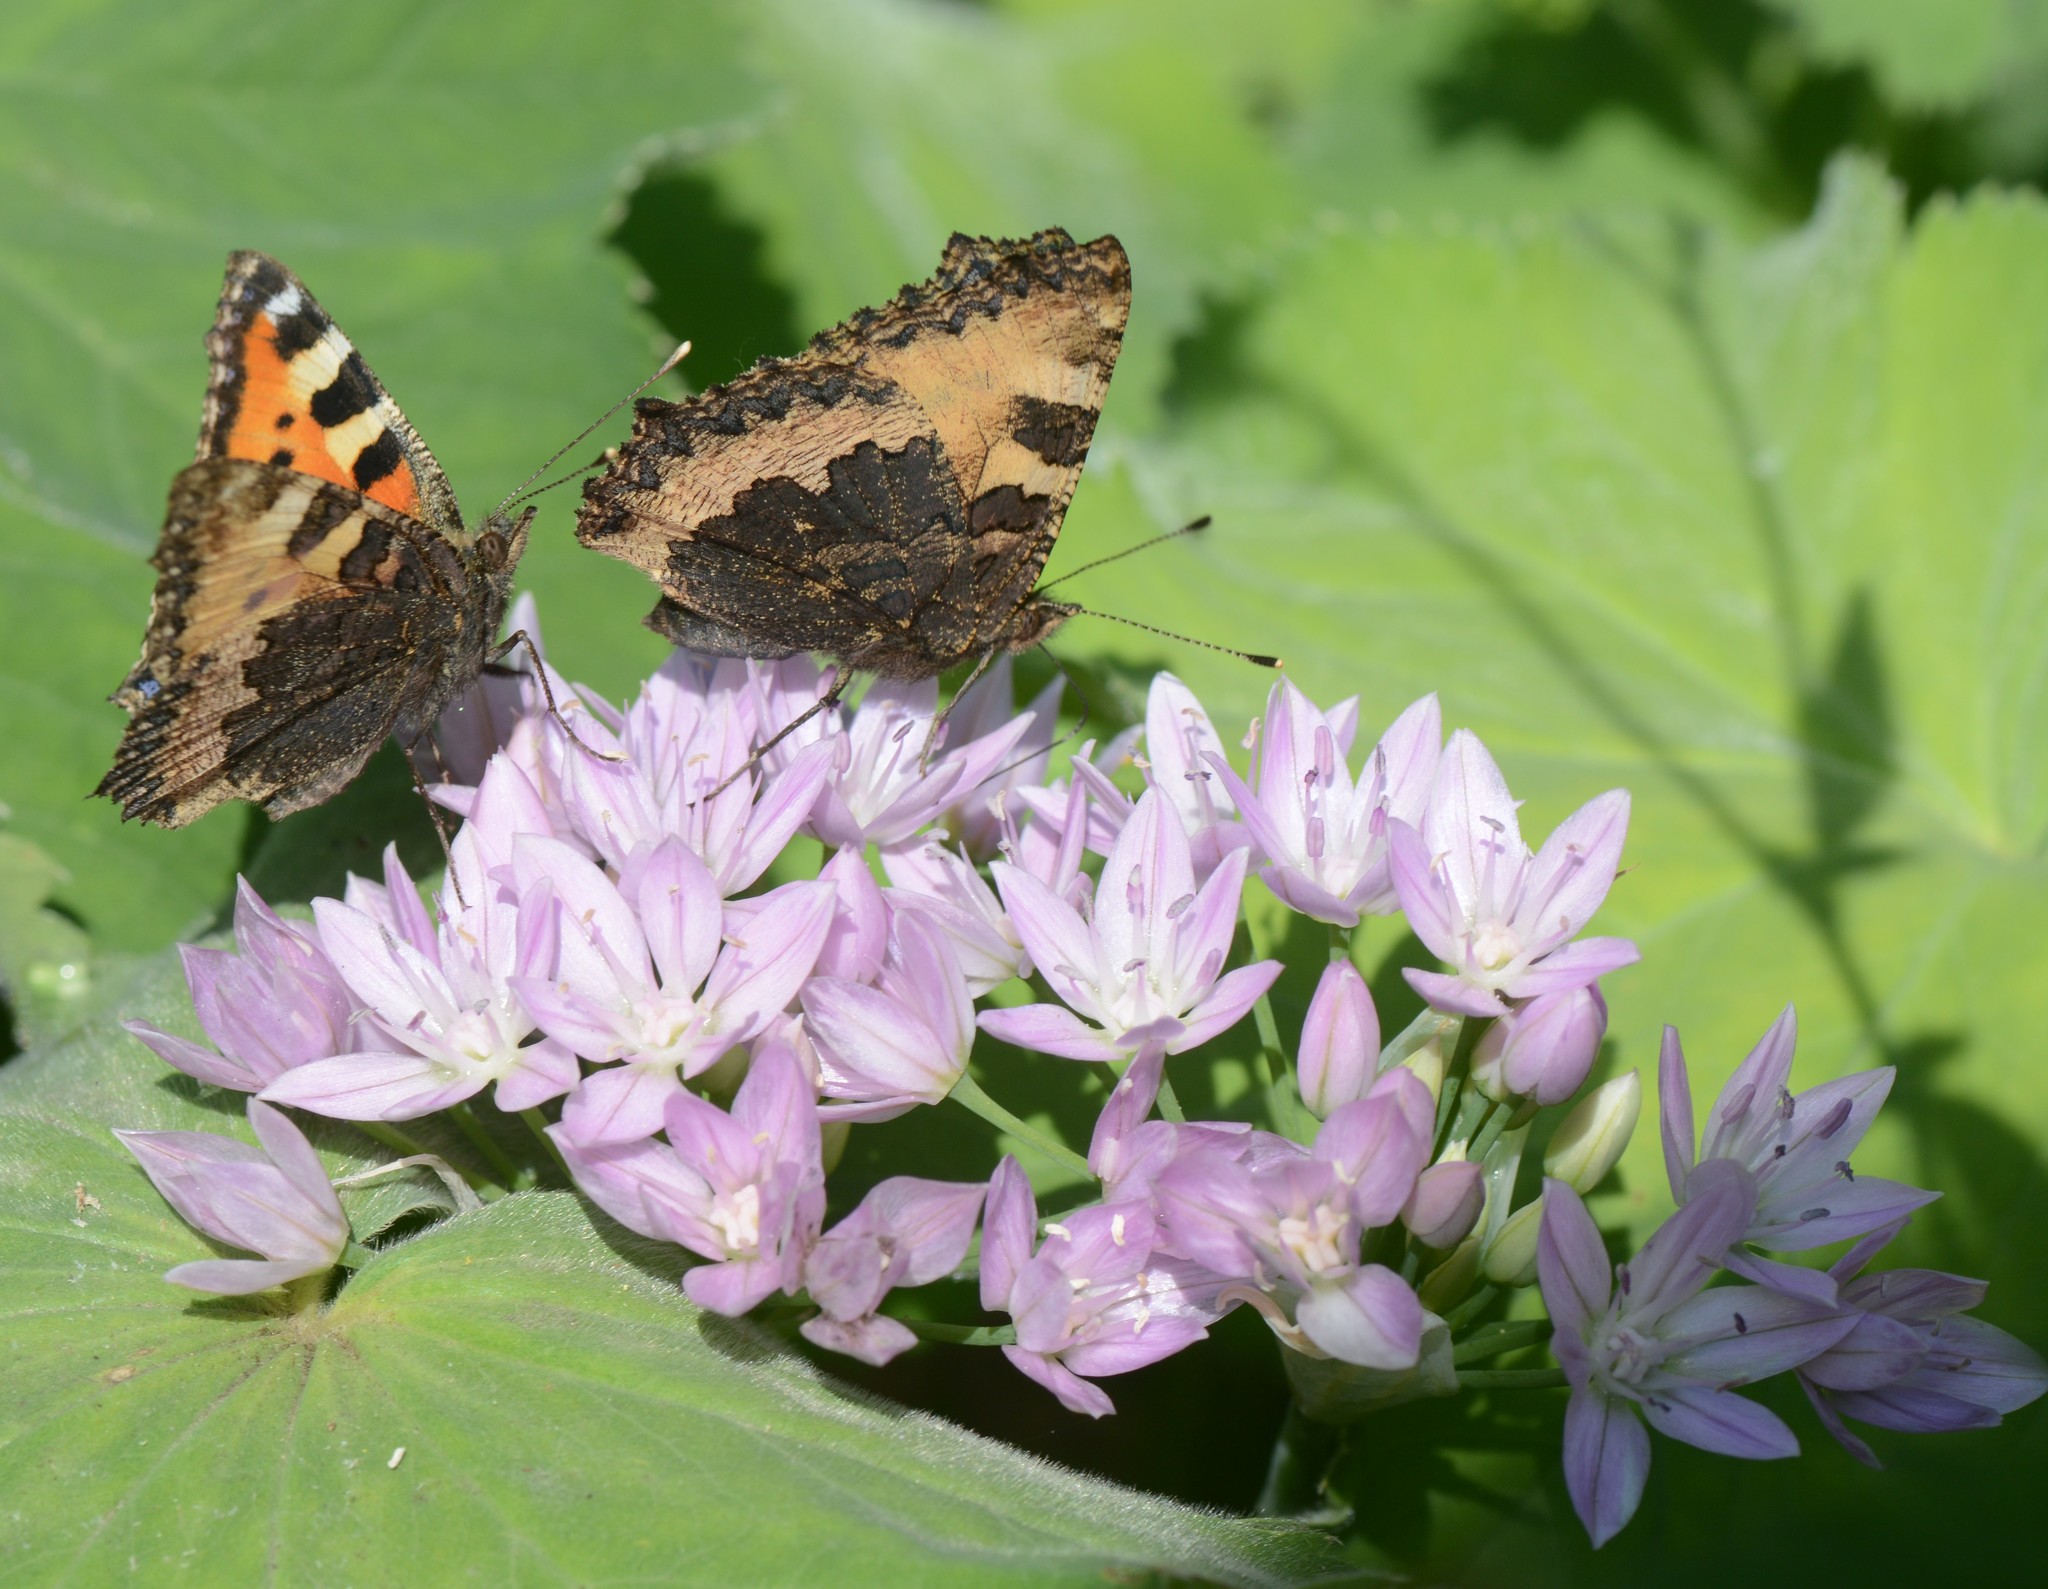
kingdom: Animalia
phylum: Arthropoda
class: Insecta
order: Lepidoptera
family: Nymphalidae
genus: Aglais
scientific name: Aglais urticae
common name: Small tortoiseshell
